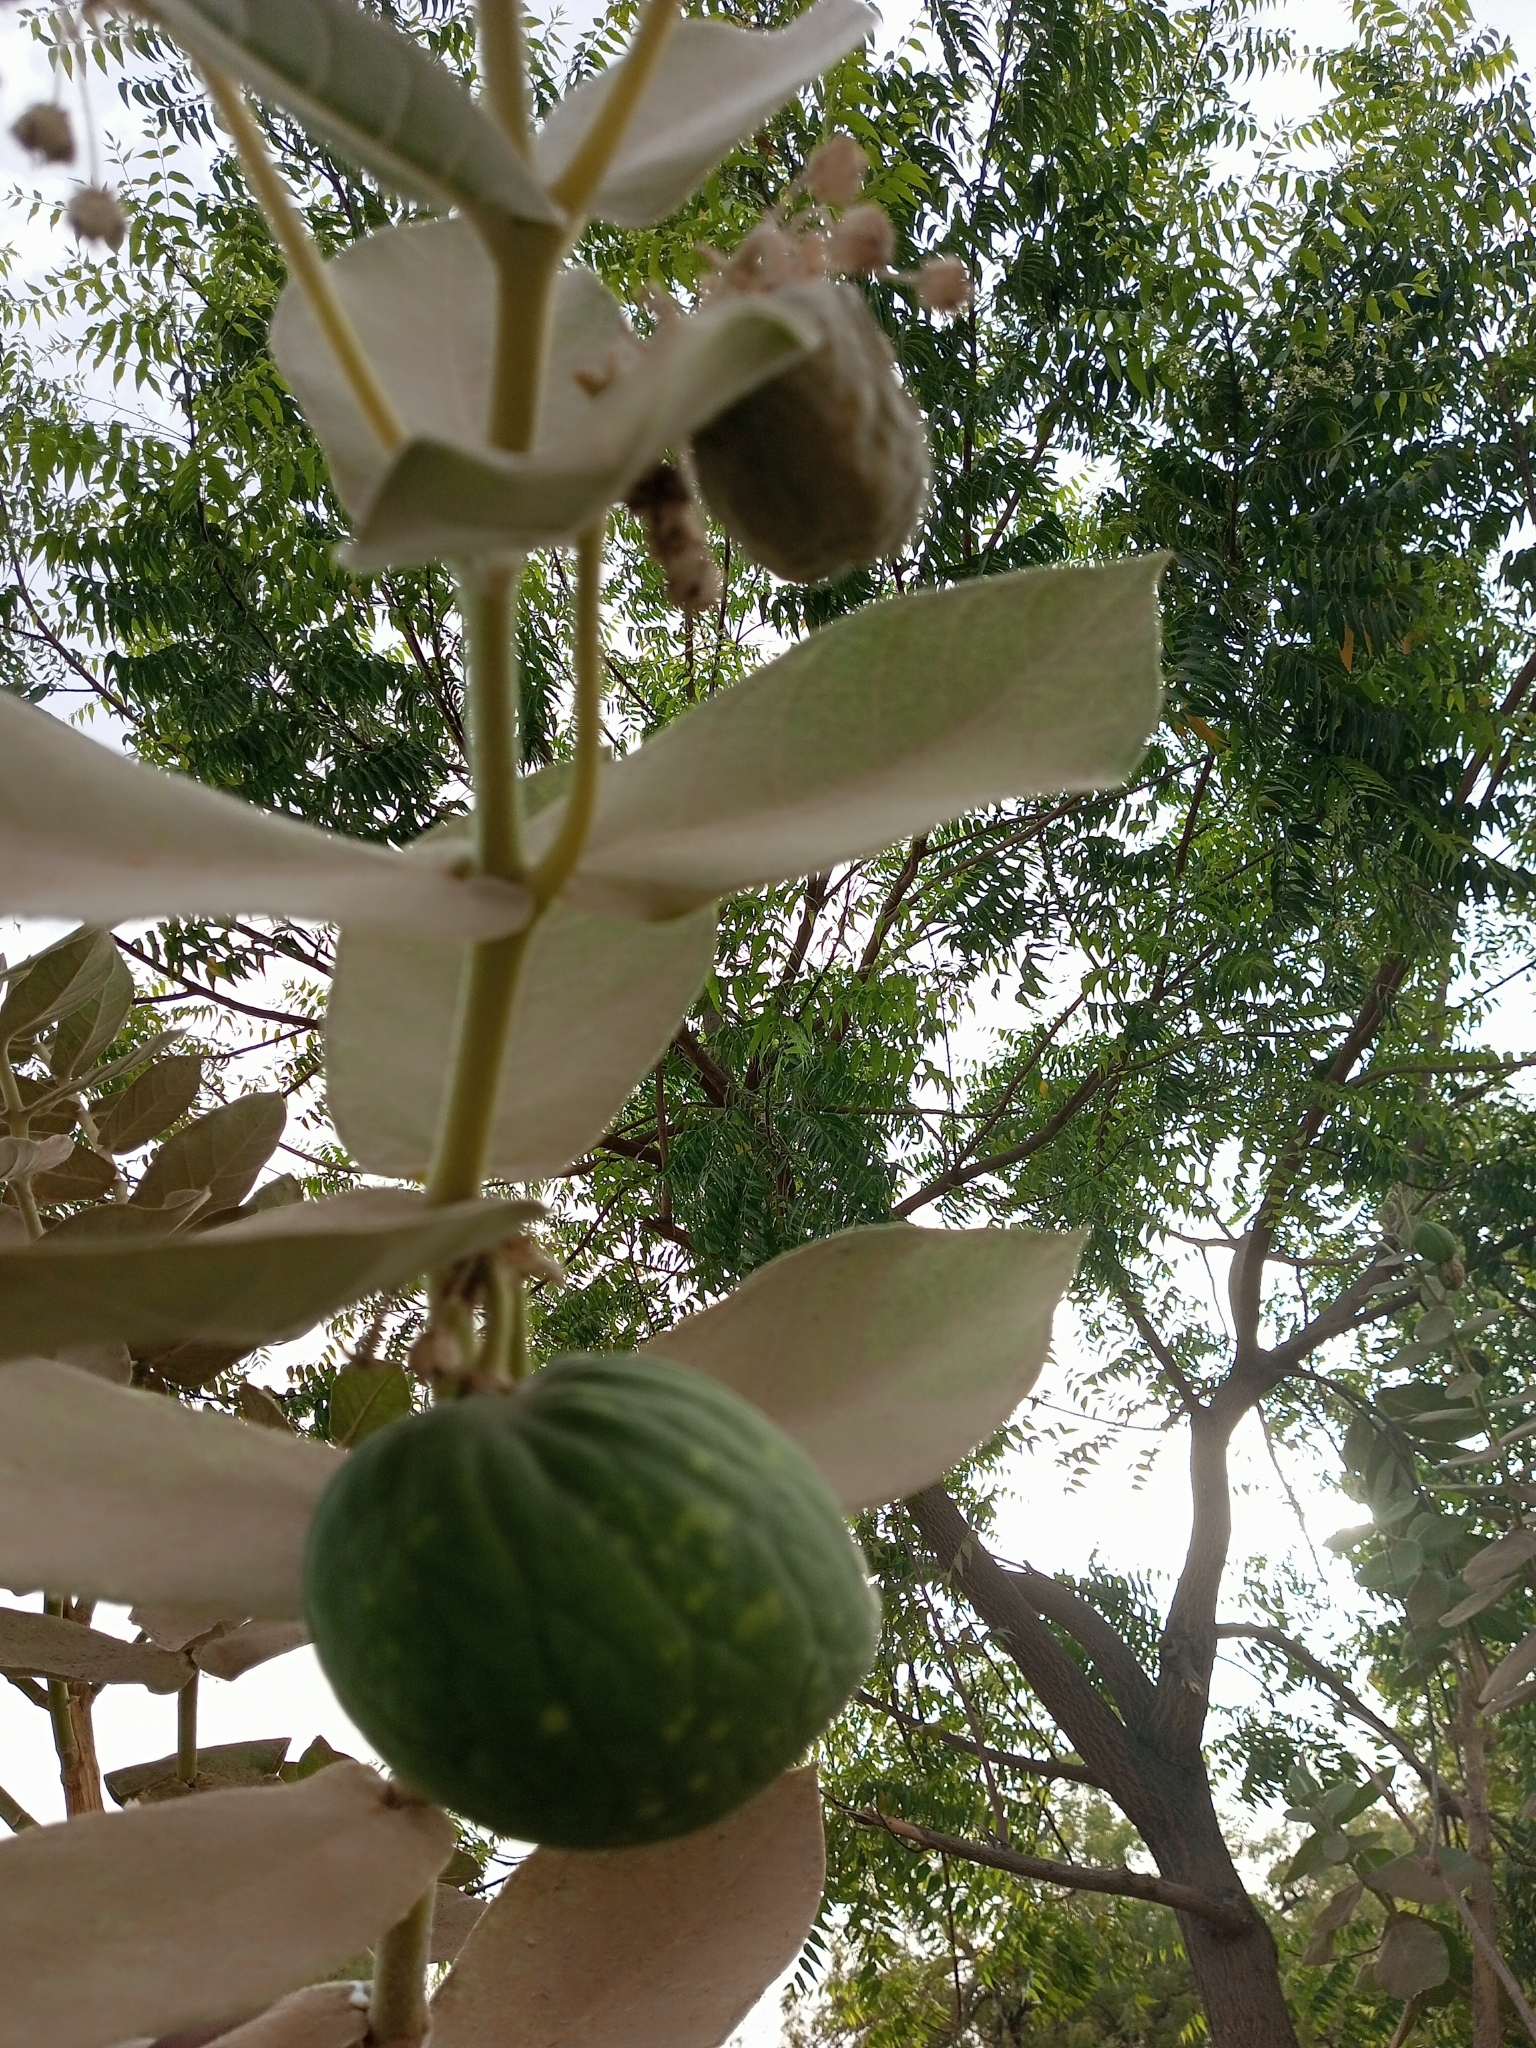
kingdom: Plantae
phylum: Tracheophyta
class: Magnoliopsida
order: Gentianales
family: Apocynaceae
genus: Calotropis
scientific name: Calotropis procera
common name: Roostertree
